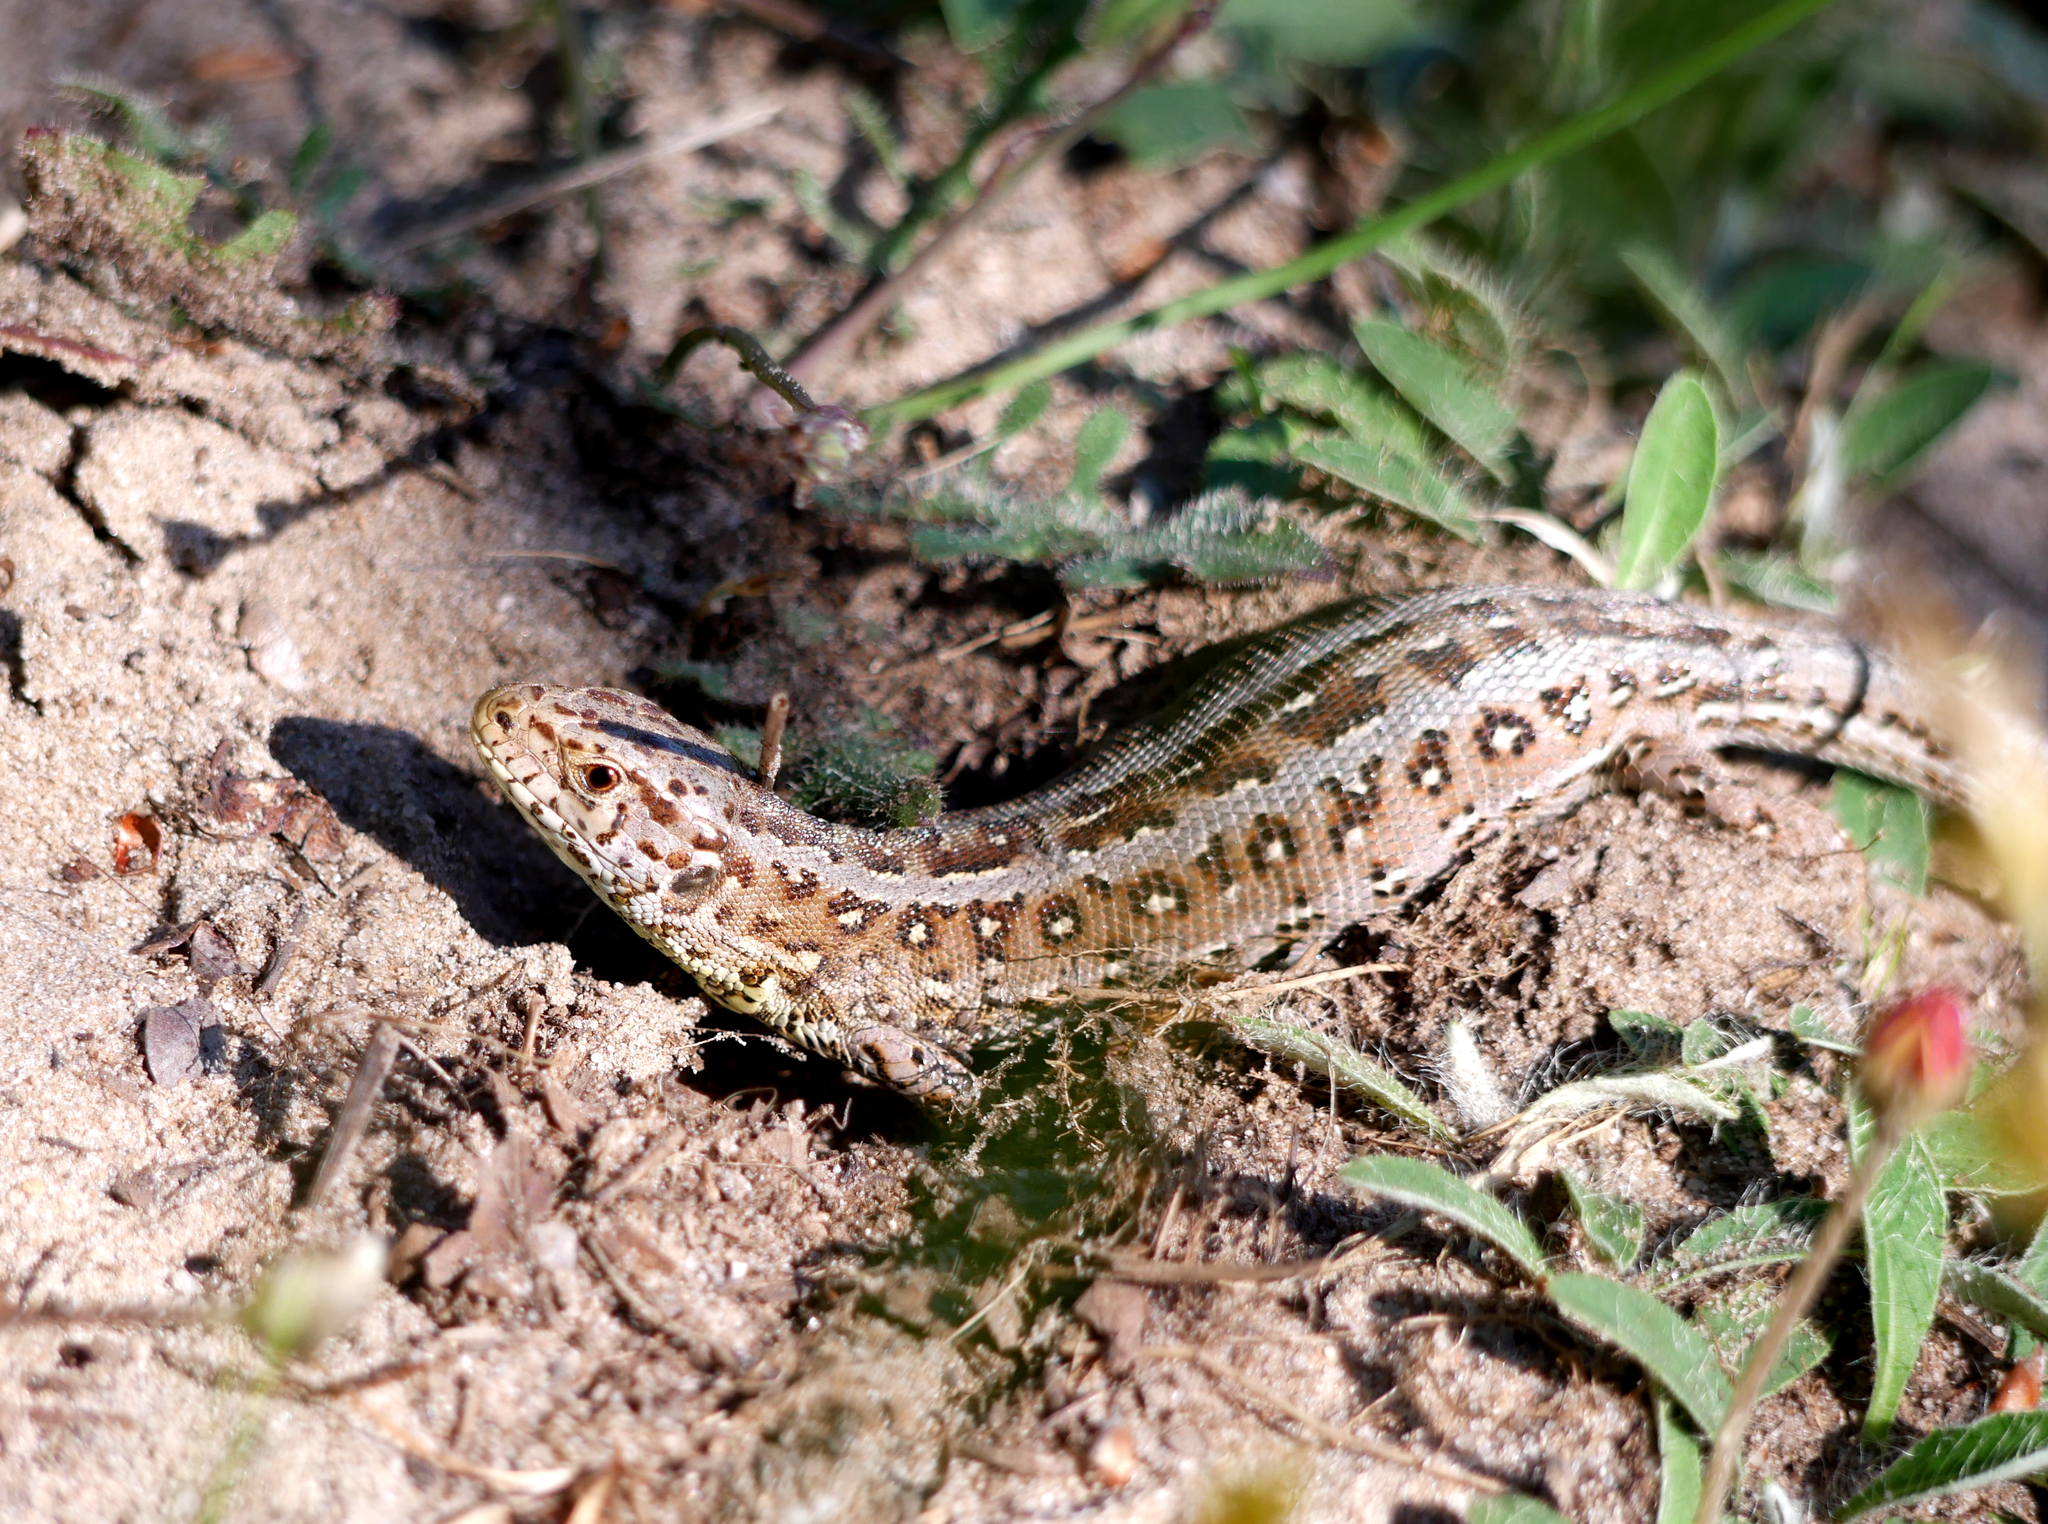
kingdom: Animalia
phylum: Chordata
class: Squamata
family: Lacertidae
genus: Lacerta
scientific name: Lacerta agilis
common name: Sand lizard
